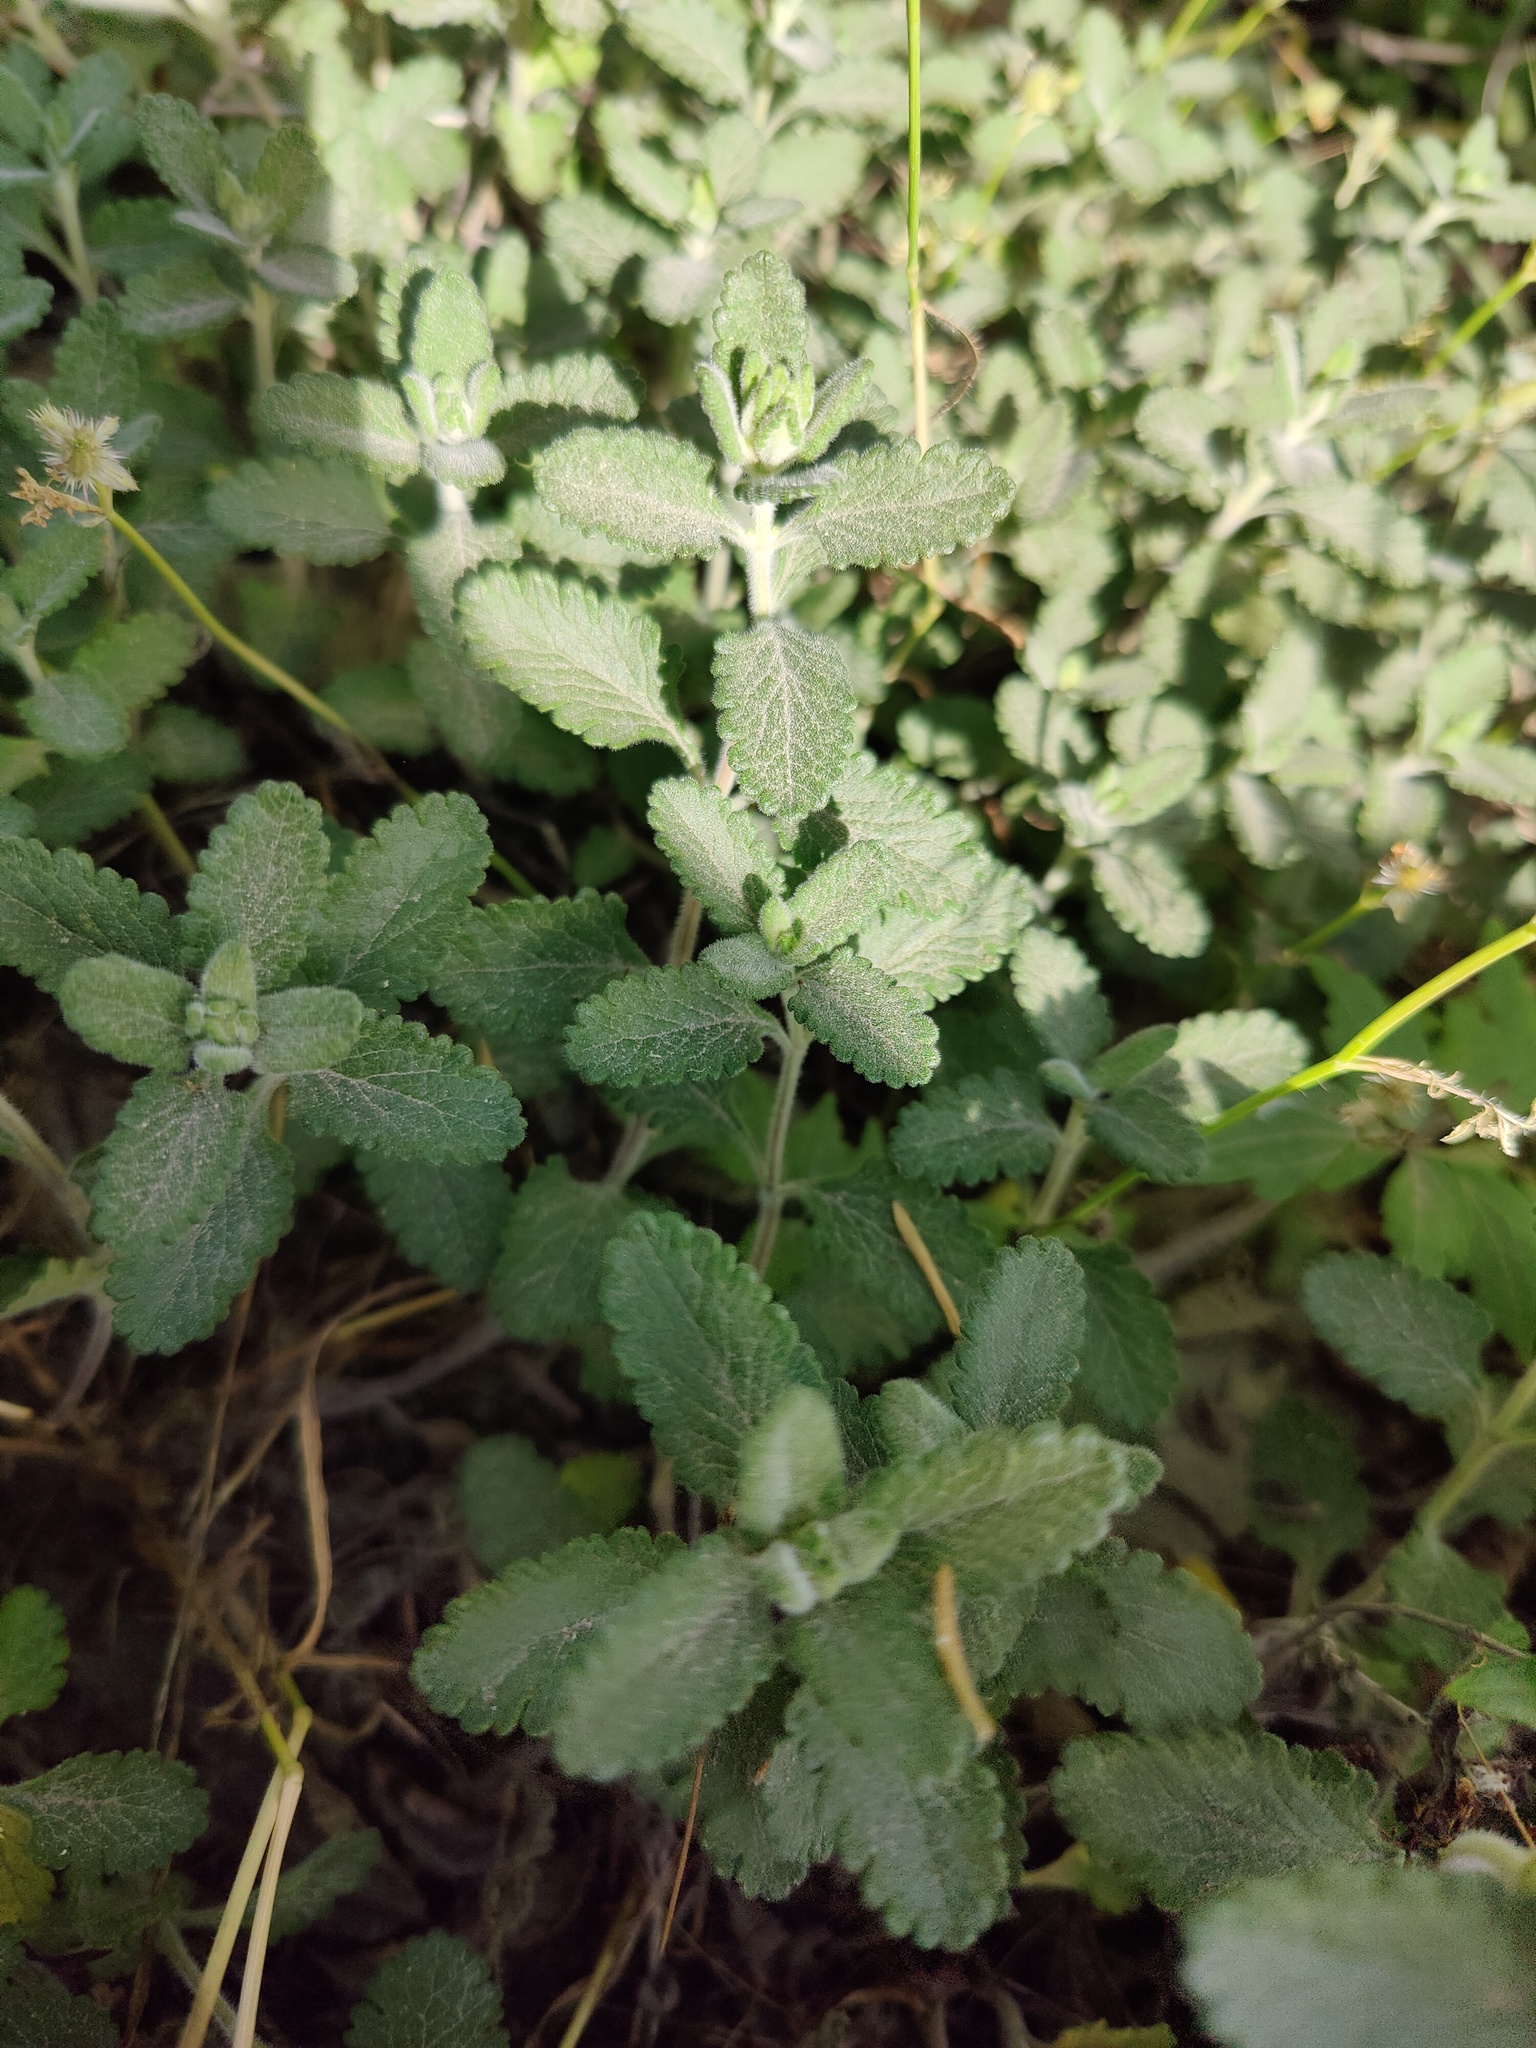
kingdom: Plantae
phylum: Tracheophyta
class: Magnoliopsida
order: Lamiales
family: Lamiaceae
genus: Teucrium
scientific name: Teucrium chamaedrys
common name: Wall germander
